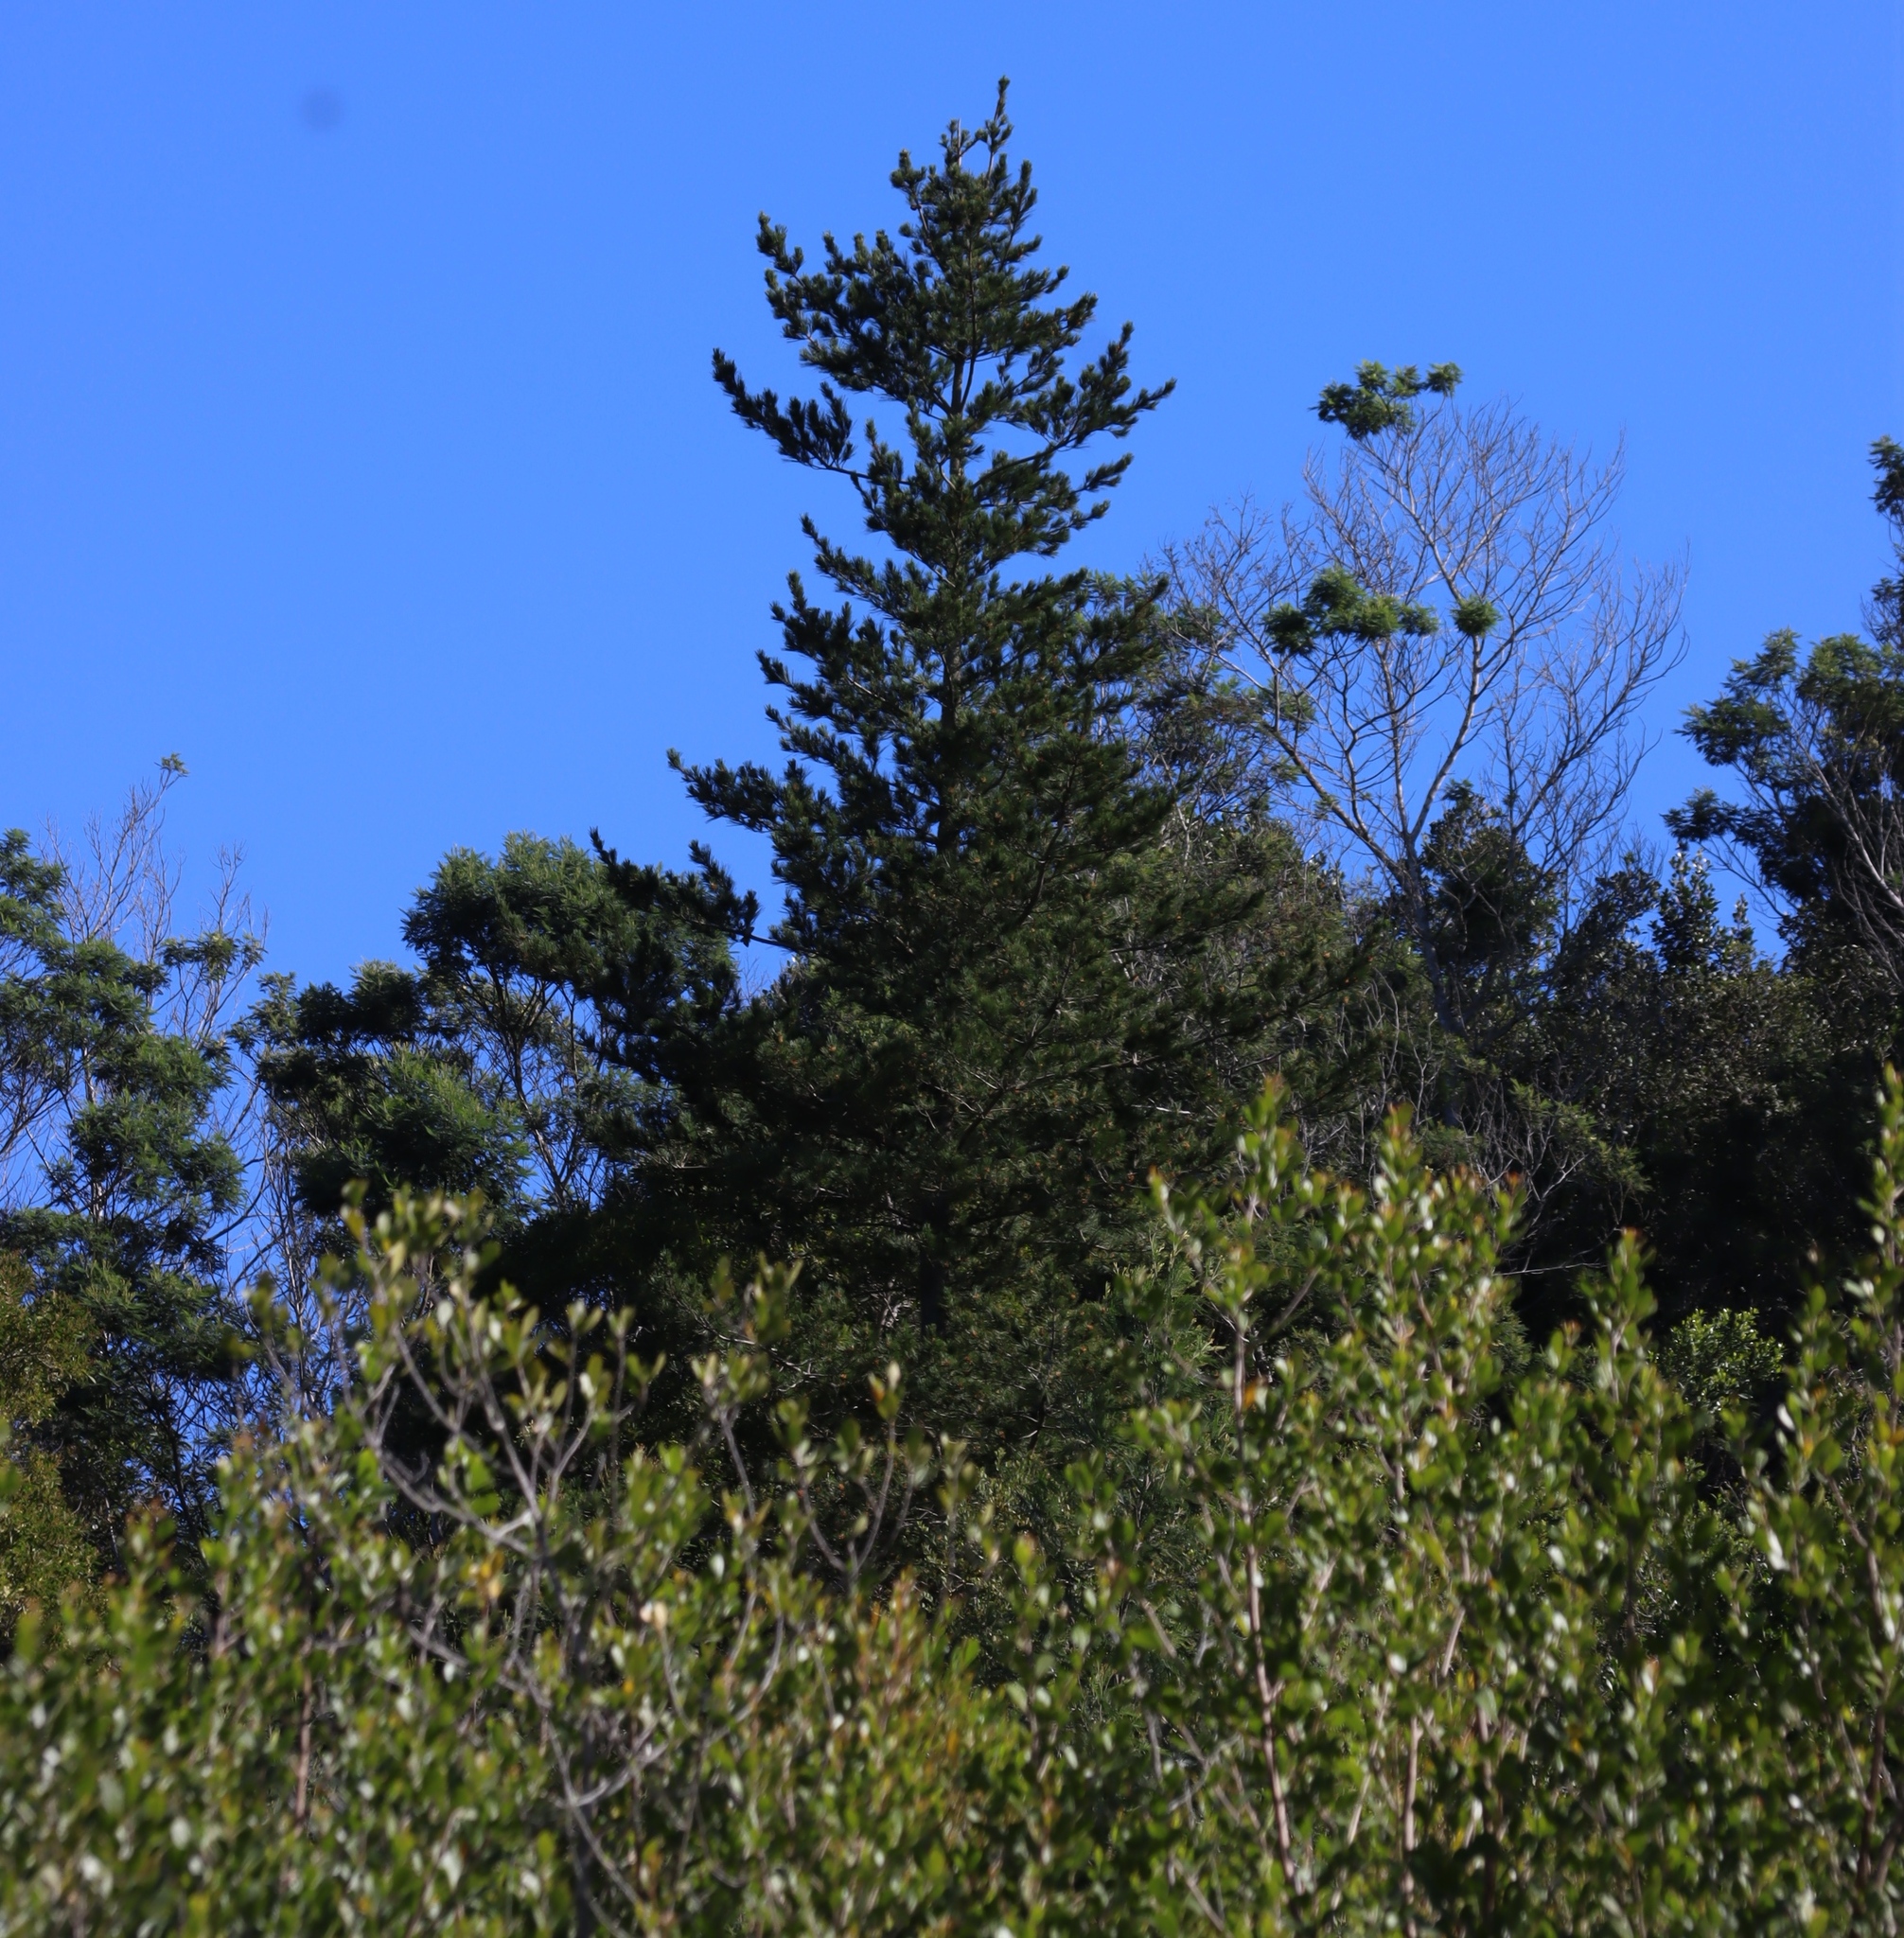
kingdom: Plantae
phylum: Tracheophyta
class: Pinopsida
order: Pinales
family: Pinaceae
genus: Pinus
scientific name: Pinus radiata
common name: Monterey pine
